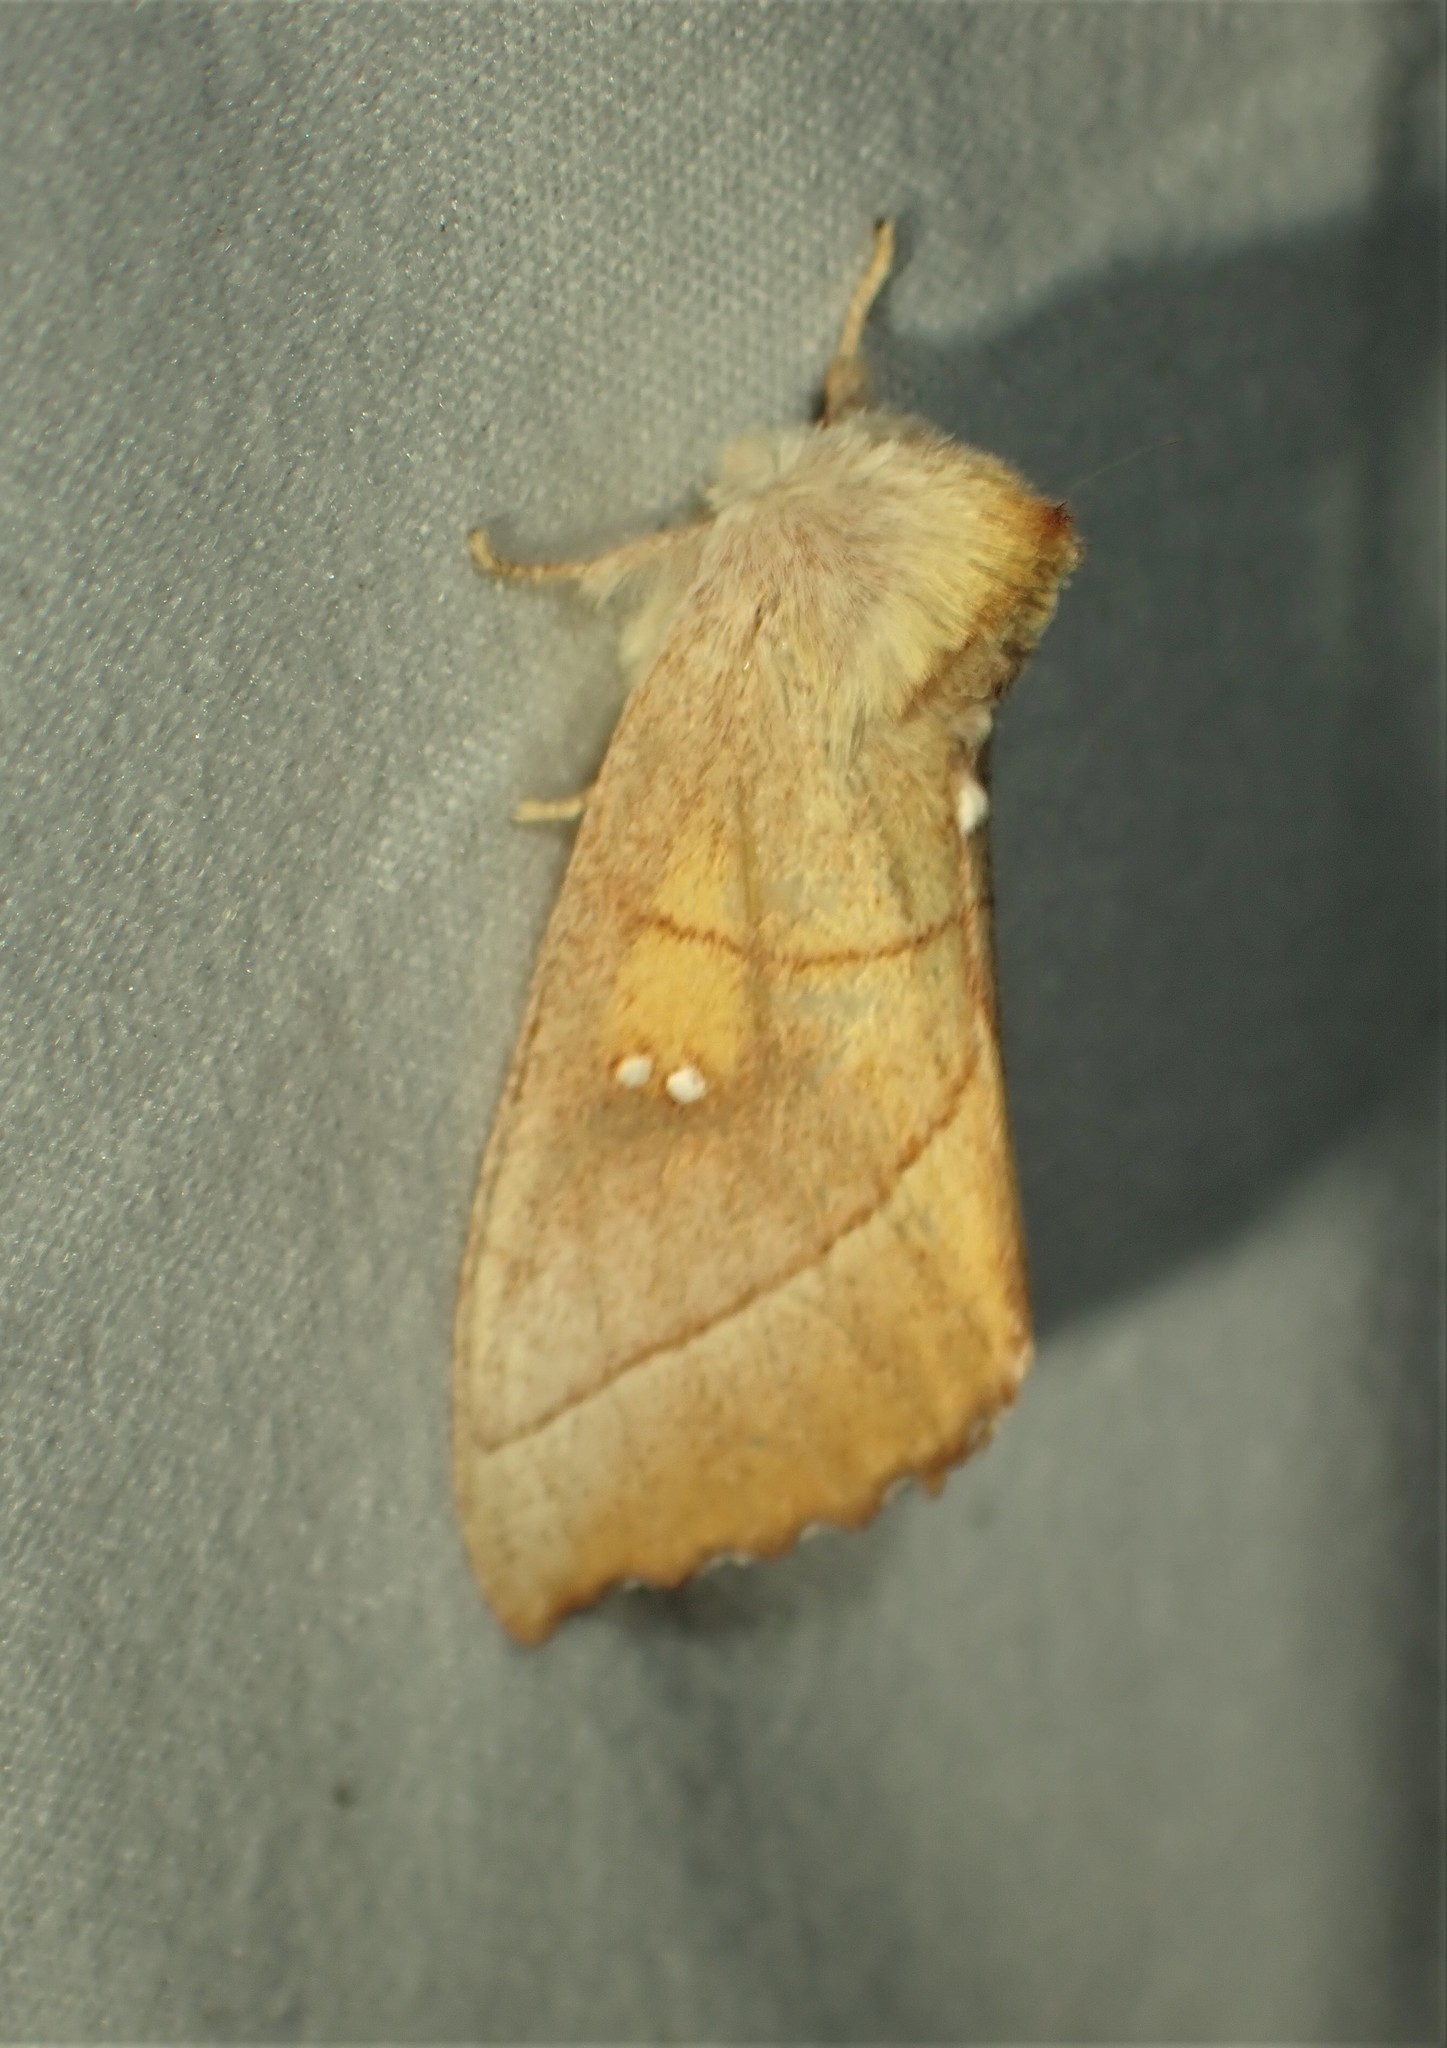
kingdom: Animalia
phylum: Arthropoda
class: Insecta
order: Lepidoptera
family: Notodontidae
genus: Nadata
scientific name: Nadata gibbosa
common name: White-dotted prominent
